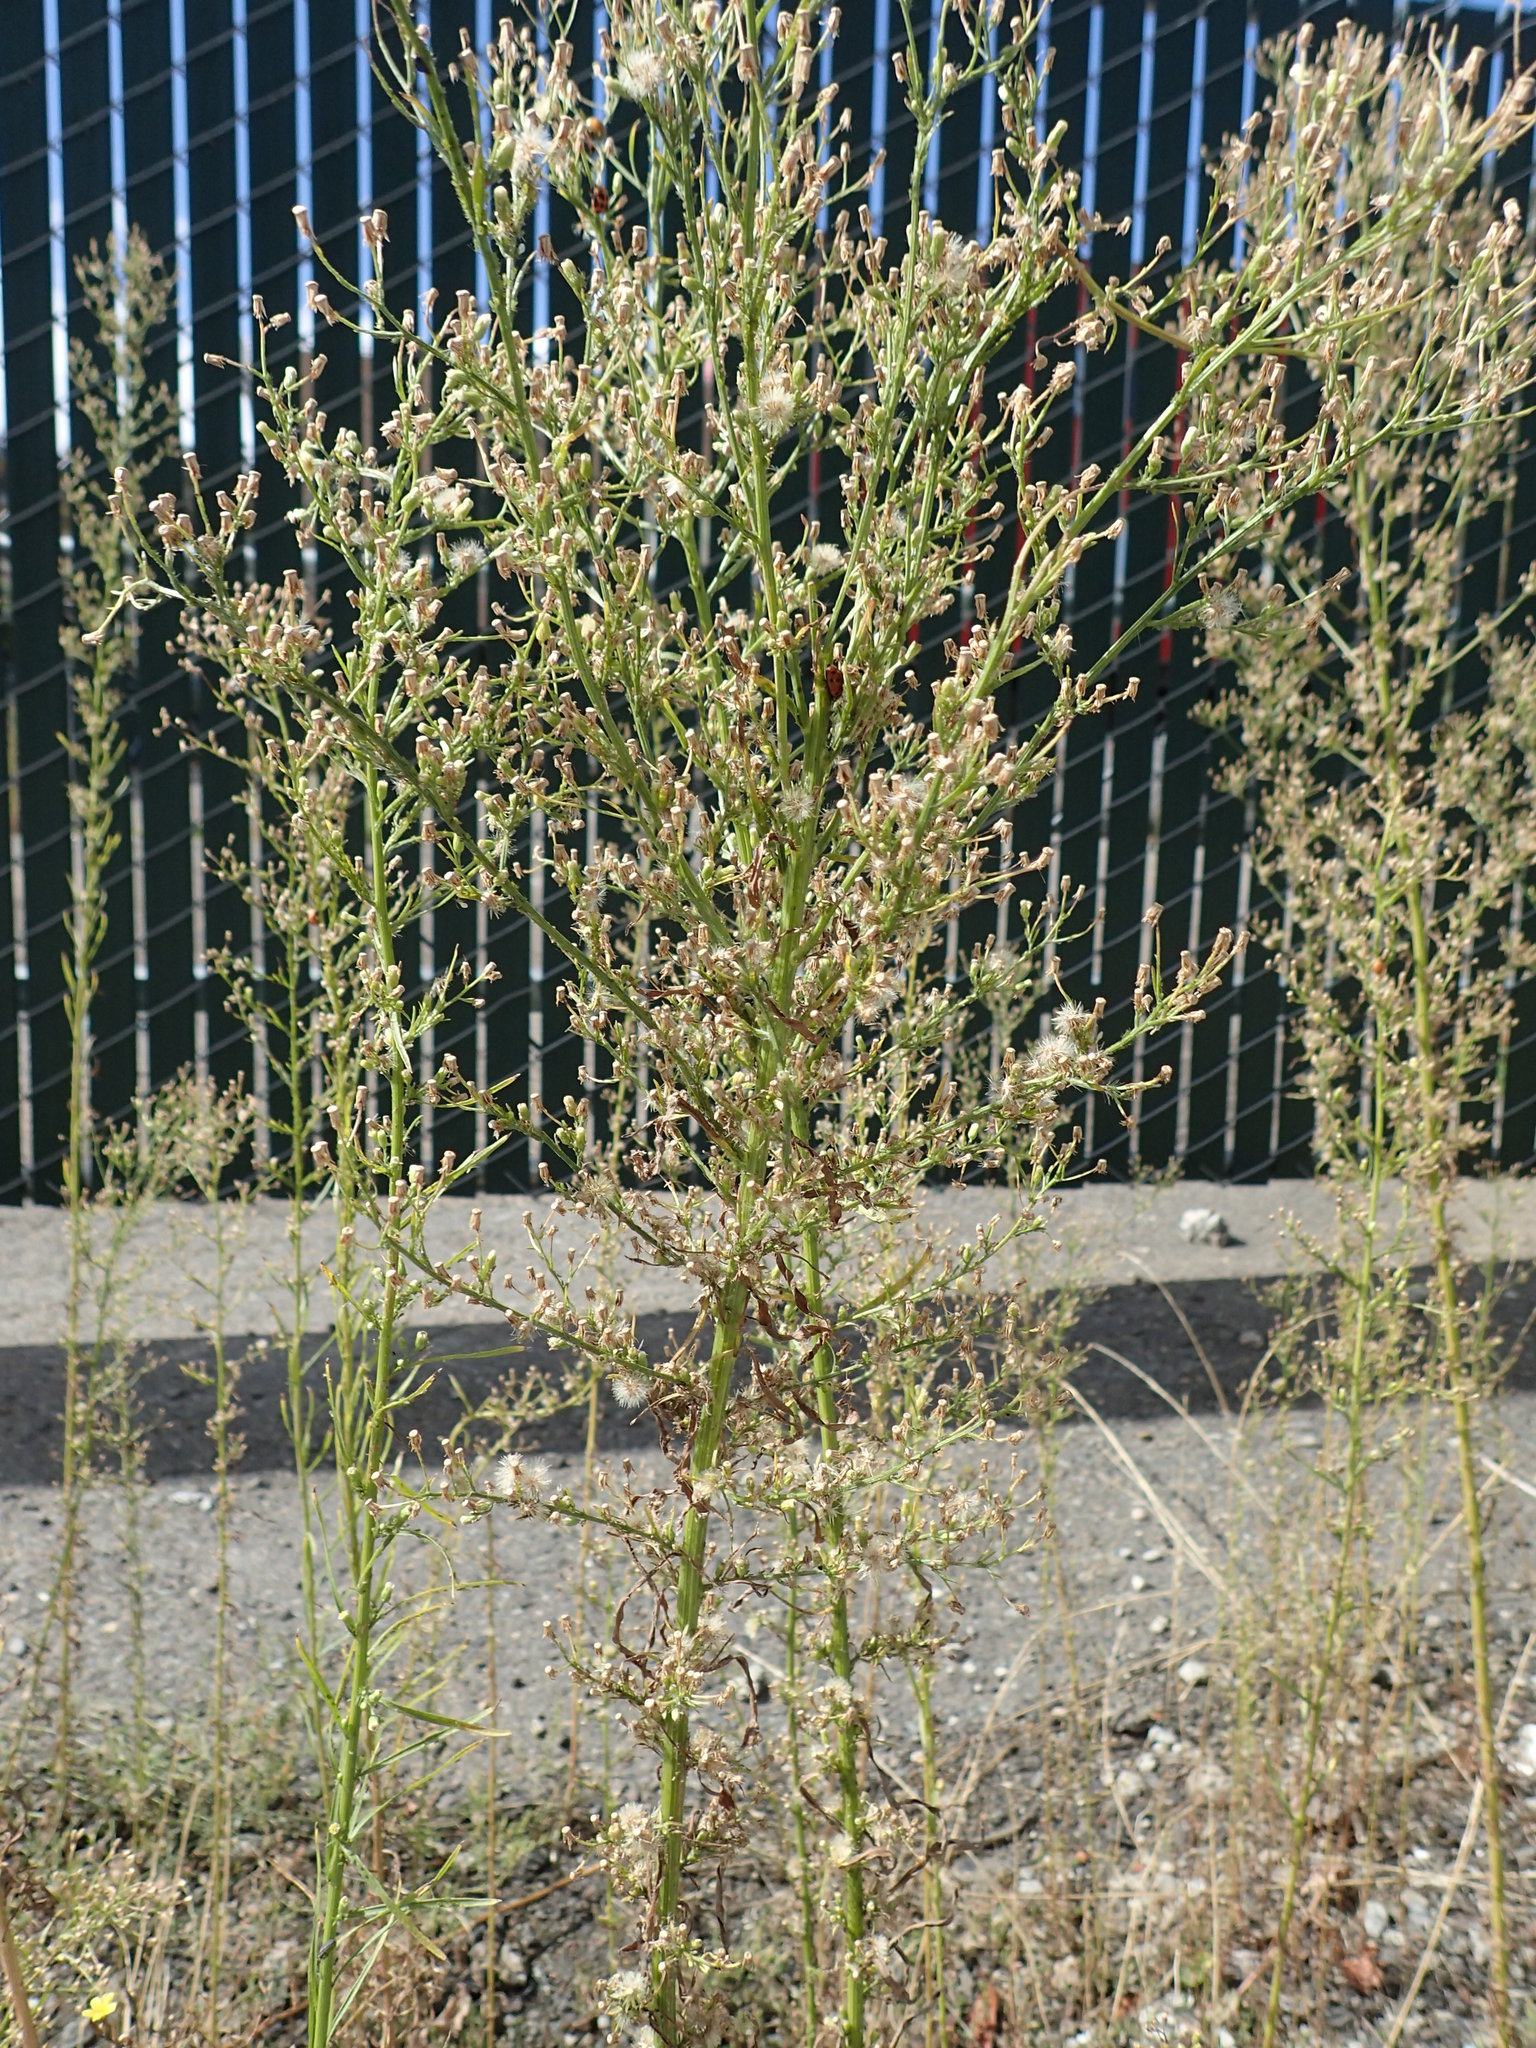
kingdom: Plantae
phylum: Tracheophyta
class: Magnoliopsida
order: Asterales
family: Asteraceae
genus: Erigeron
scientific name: Erigeron canadensis
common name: Canadian fleabane
